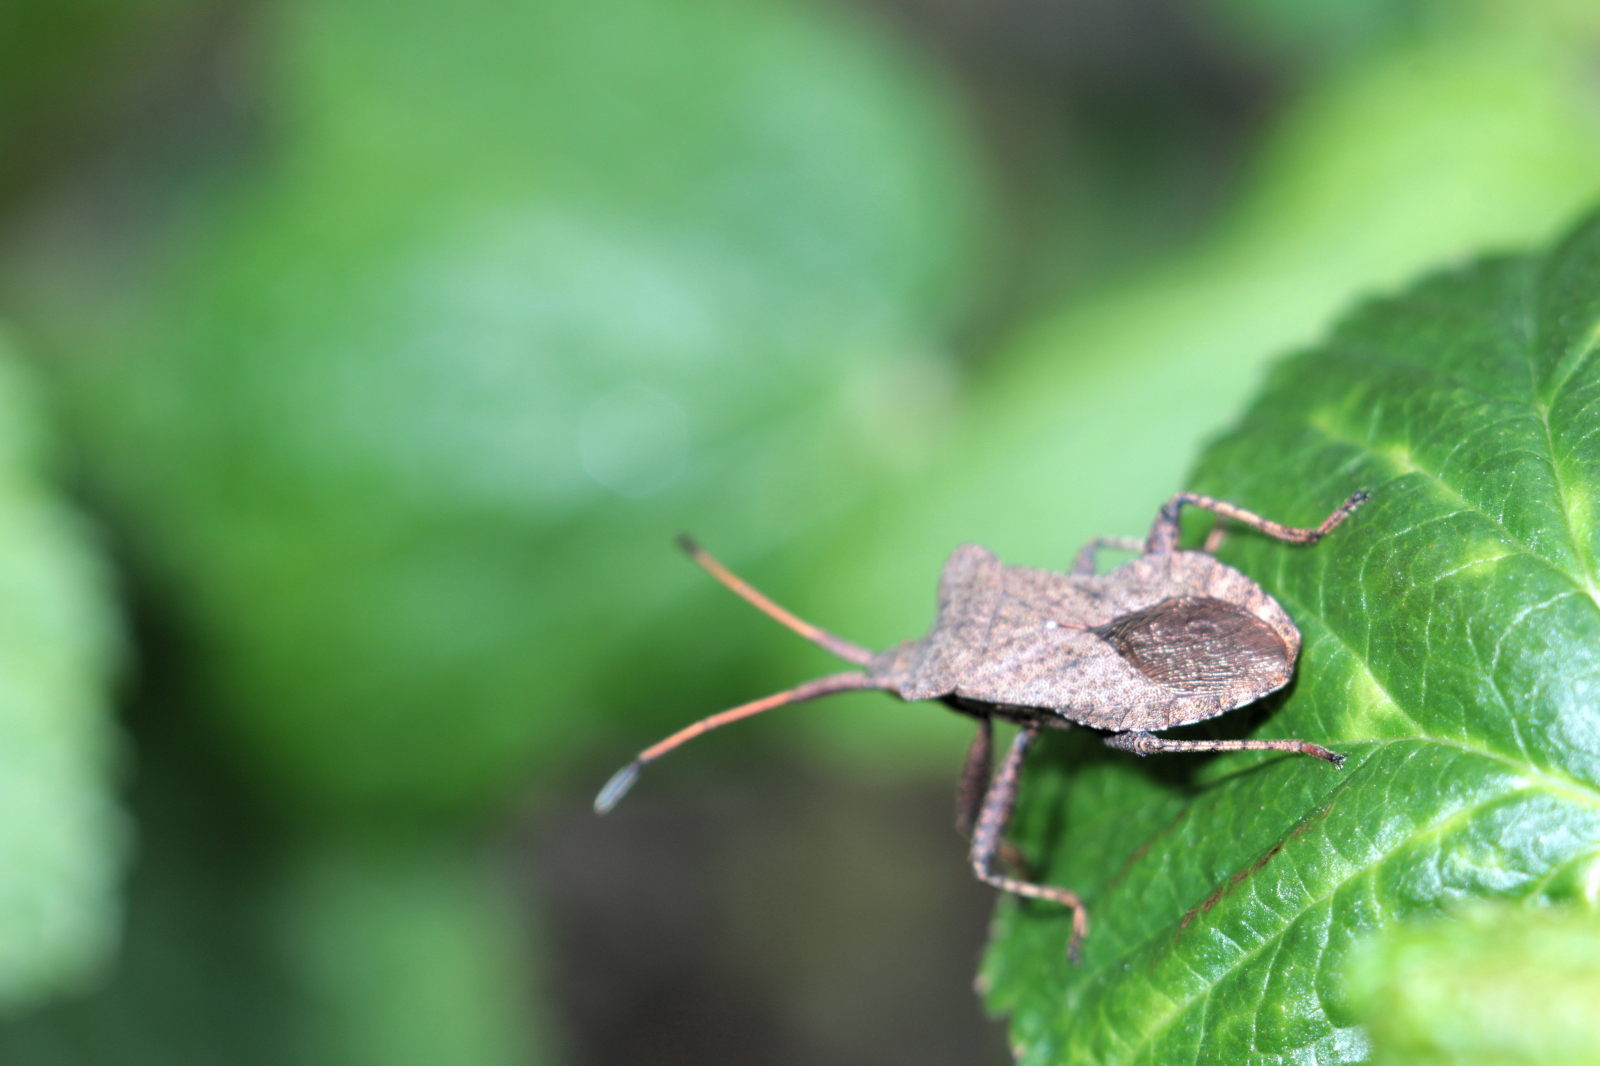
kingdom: Animalia
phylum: Arthropoda
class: Insecta
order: Hemiptera
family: Coreidae
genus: Coreus
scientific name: Coreus marginatus
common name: Dock bug
